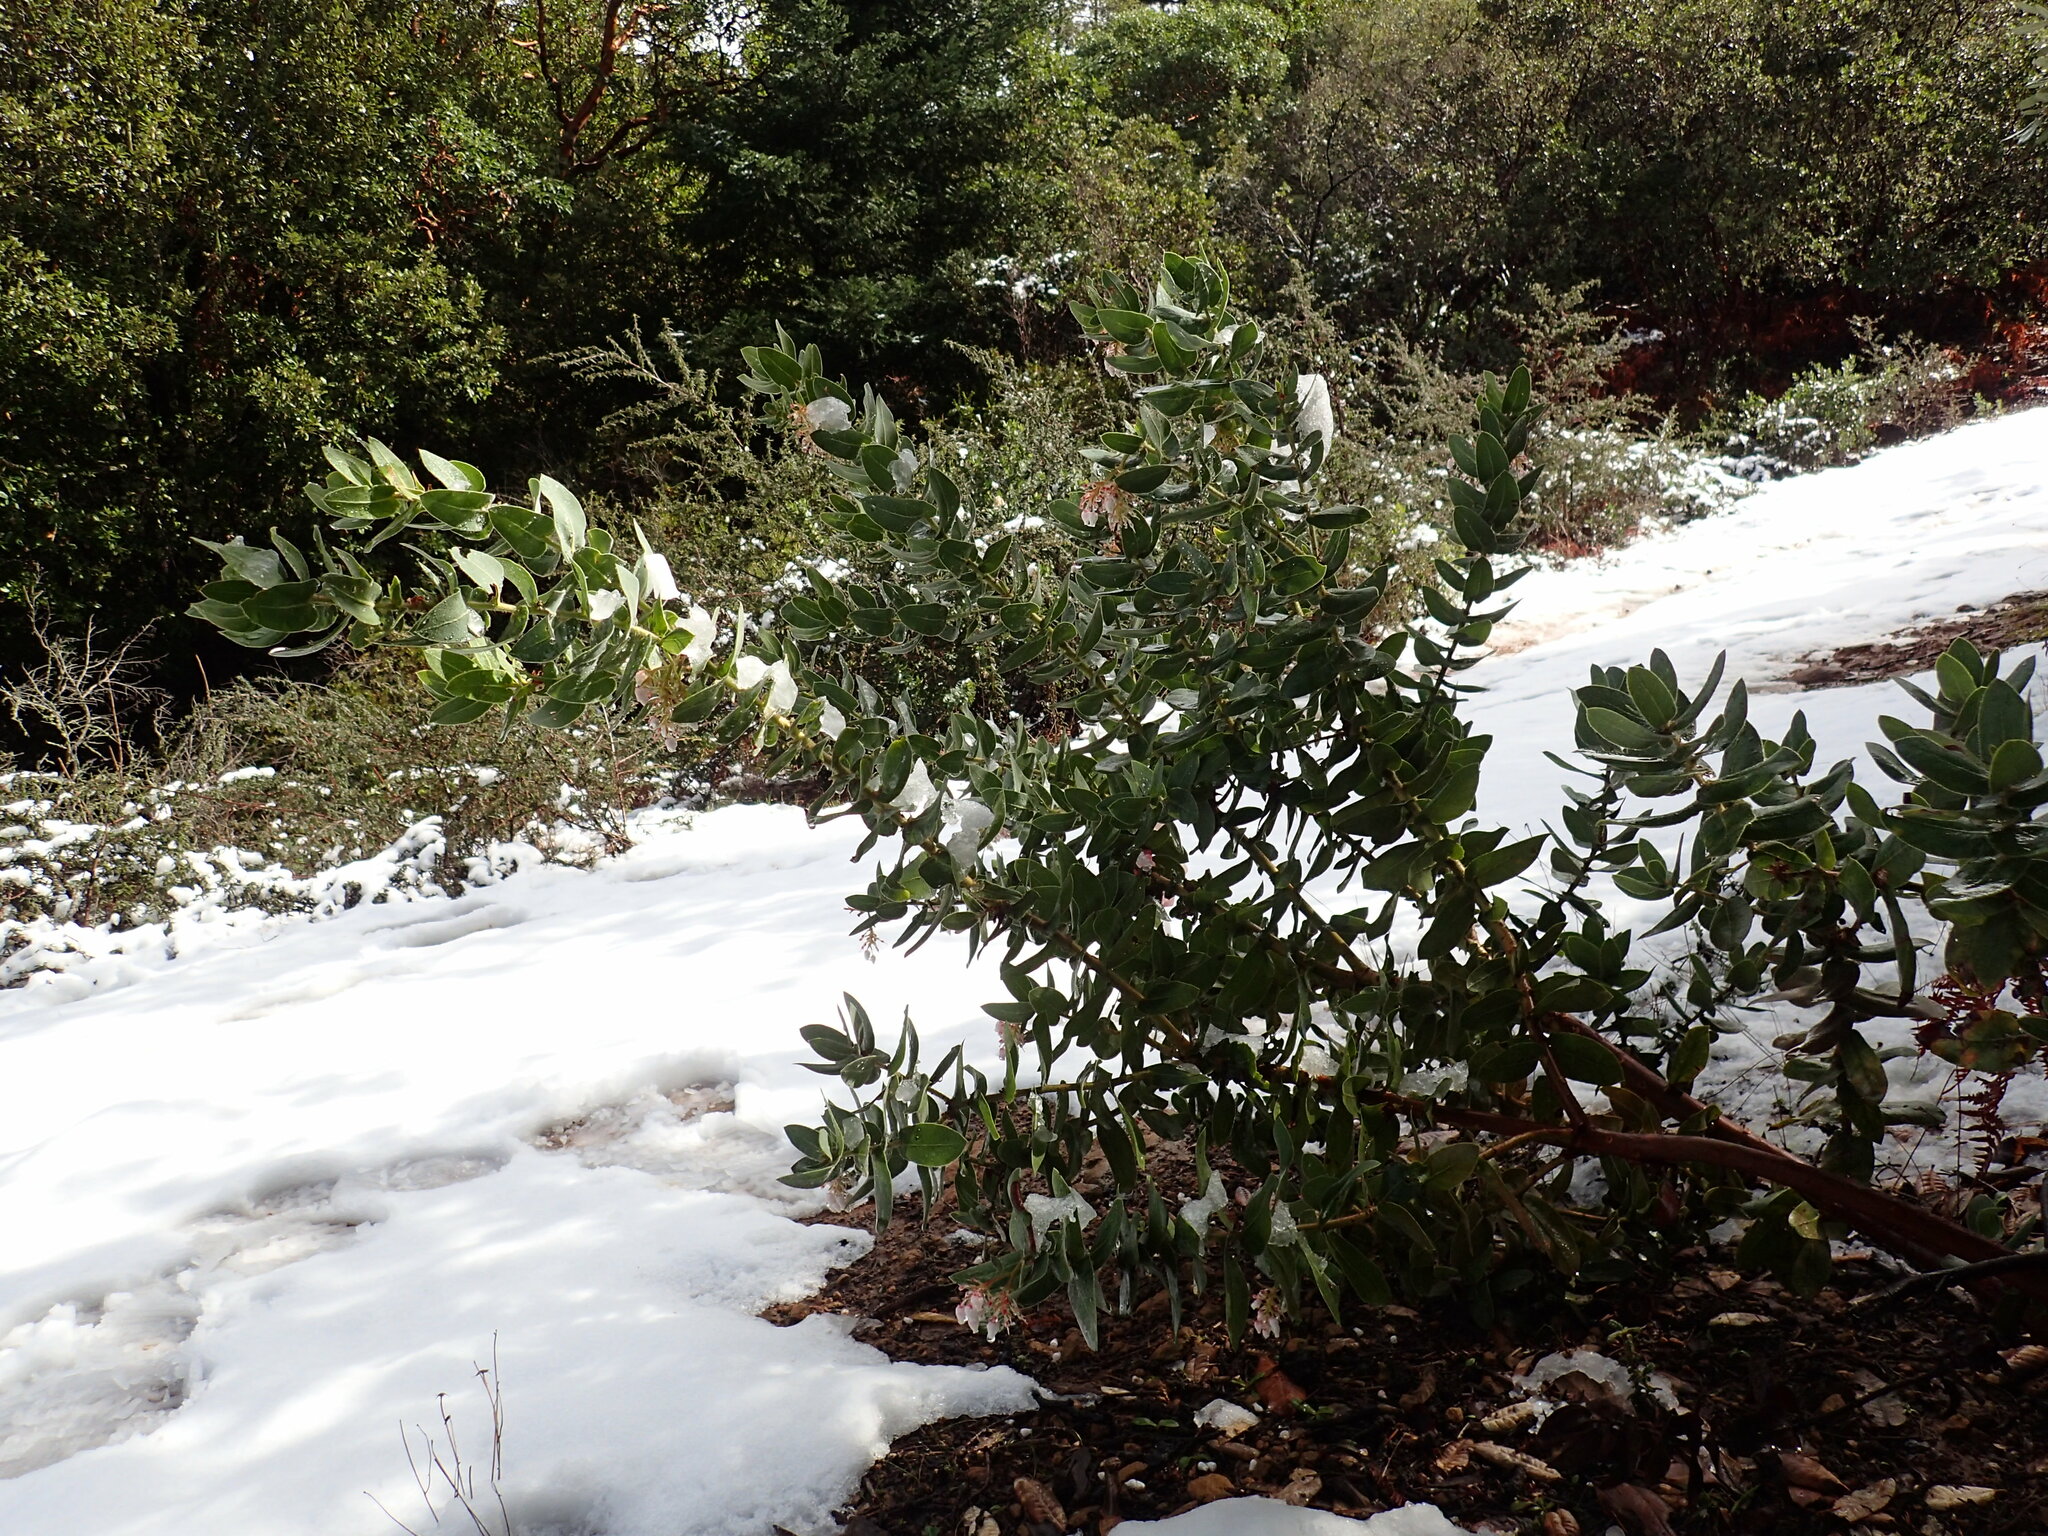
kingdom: Plantae
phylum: Tracheophyta
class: Magnoliopsida
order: Ericales
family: Ericaceae
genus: Arctostaphylos
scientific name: Arctostaphylos regismontana
